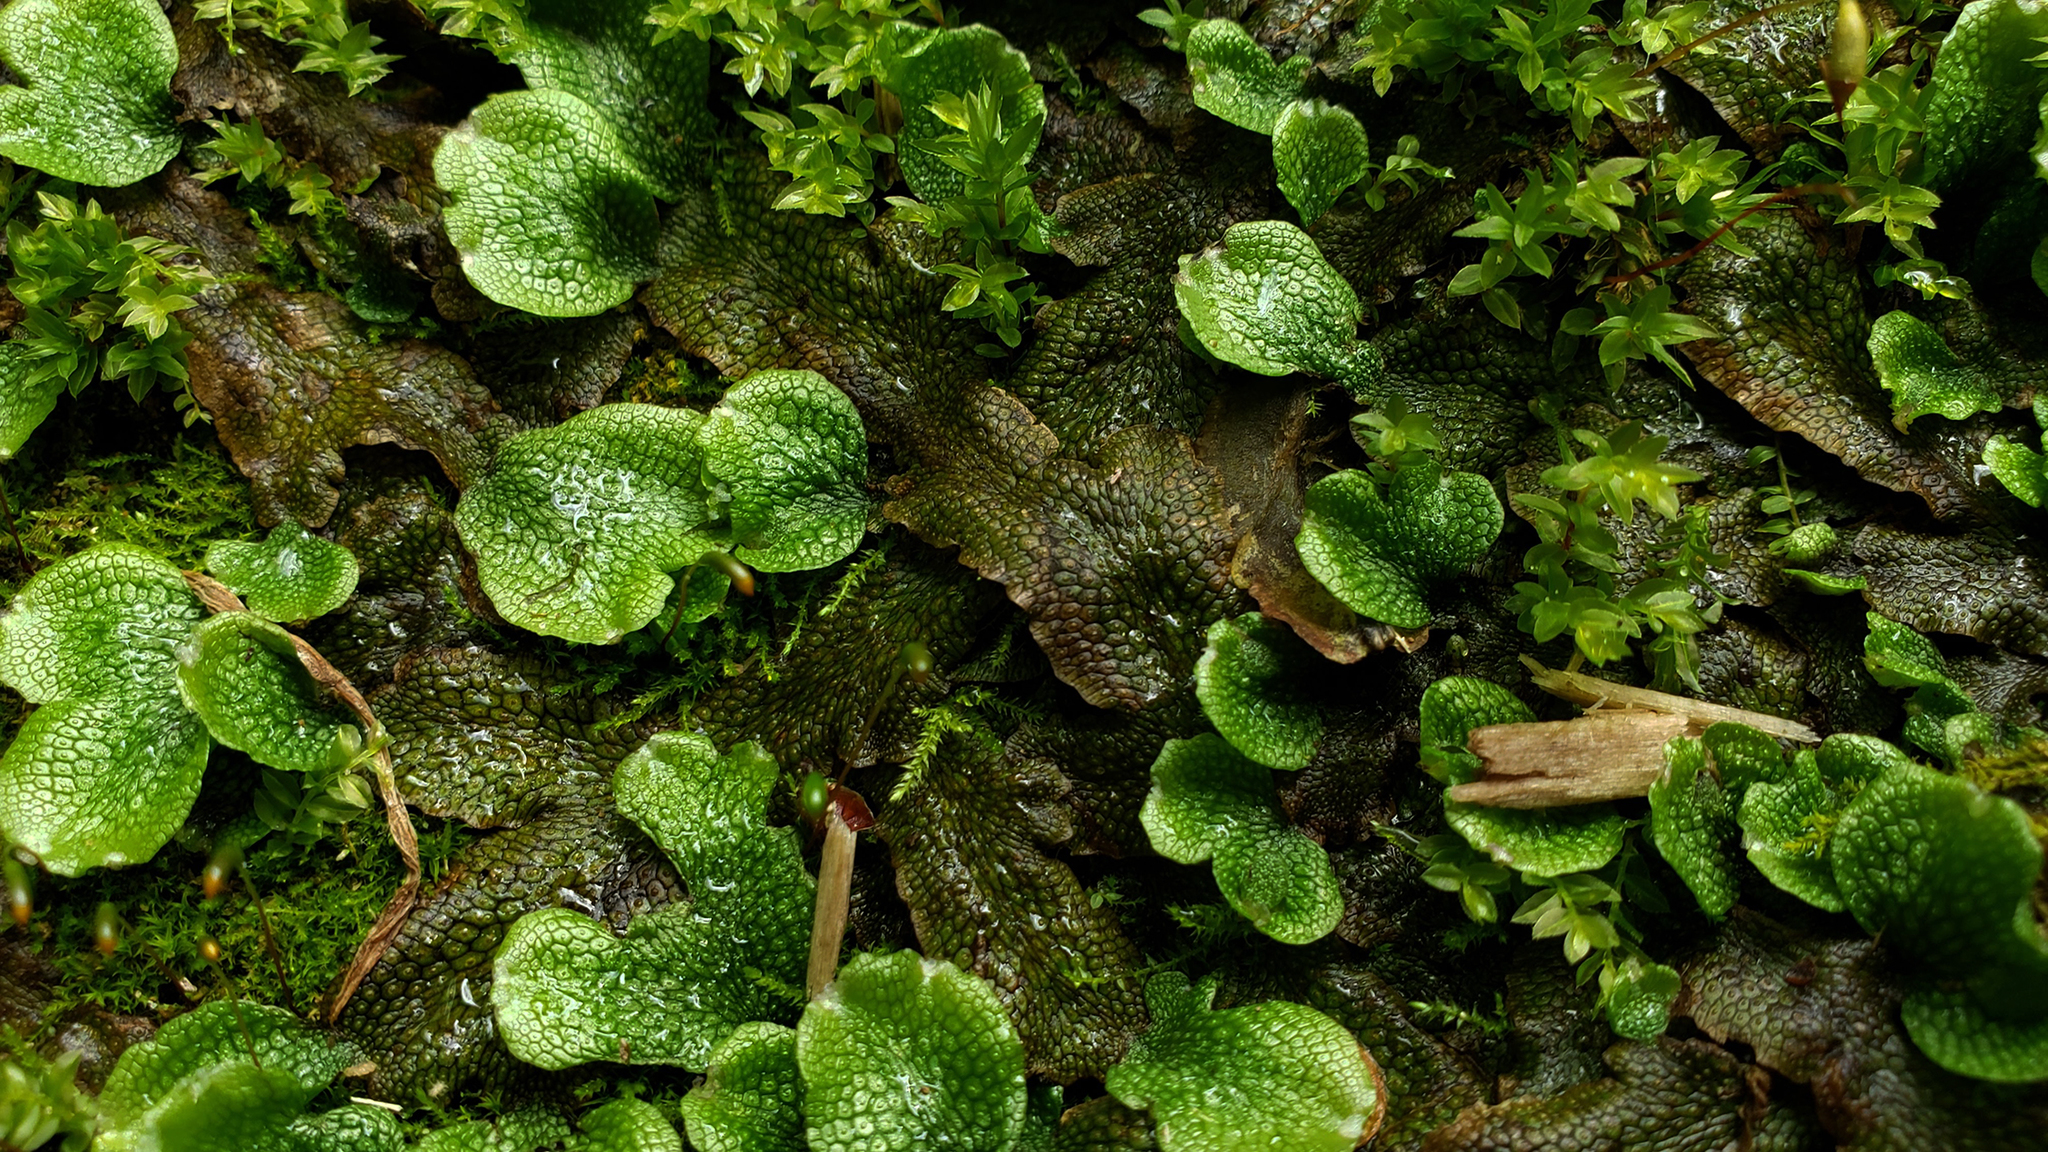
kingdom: Plantae
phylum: Marchantiophyta
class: Marchantiopsida
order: Marchantiales
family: Conocephalaceae
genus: Conocephalum
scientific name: Conocephalum salebrosum
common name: Cat-tongue liverwort
